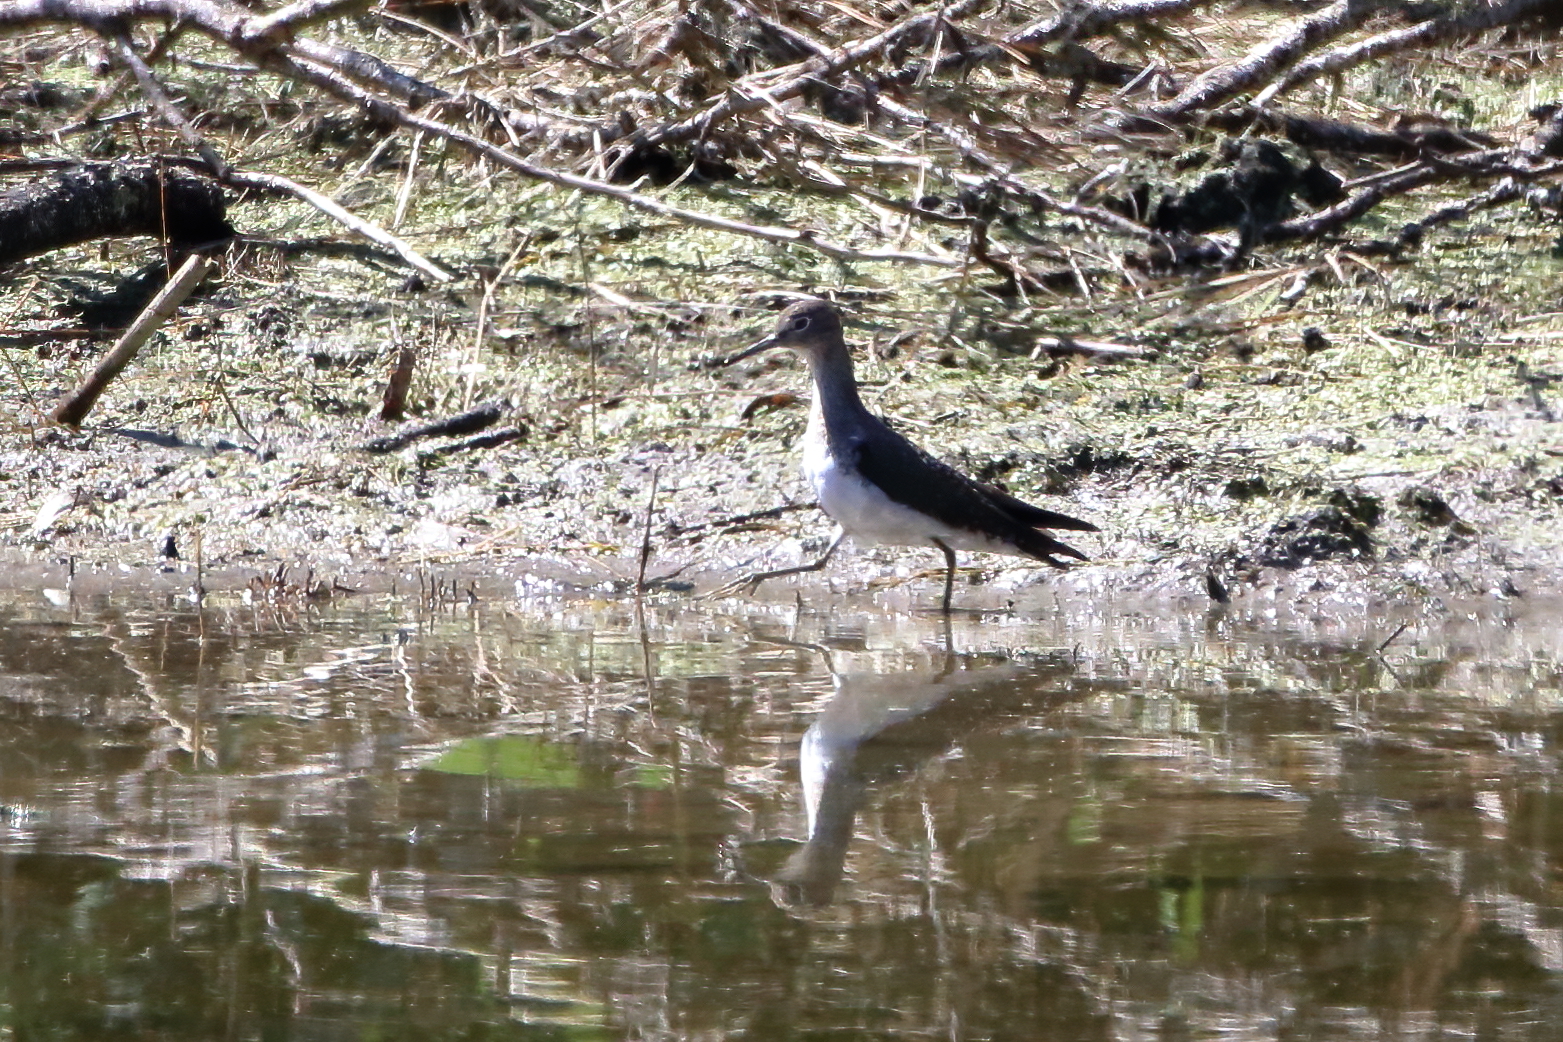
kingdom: Animalia
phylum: Chordata
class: Aves
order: Charadriiformes
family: Scolopacidae
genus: Tringa
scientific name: Tringa solitaria
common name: Solitary sandpiper
